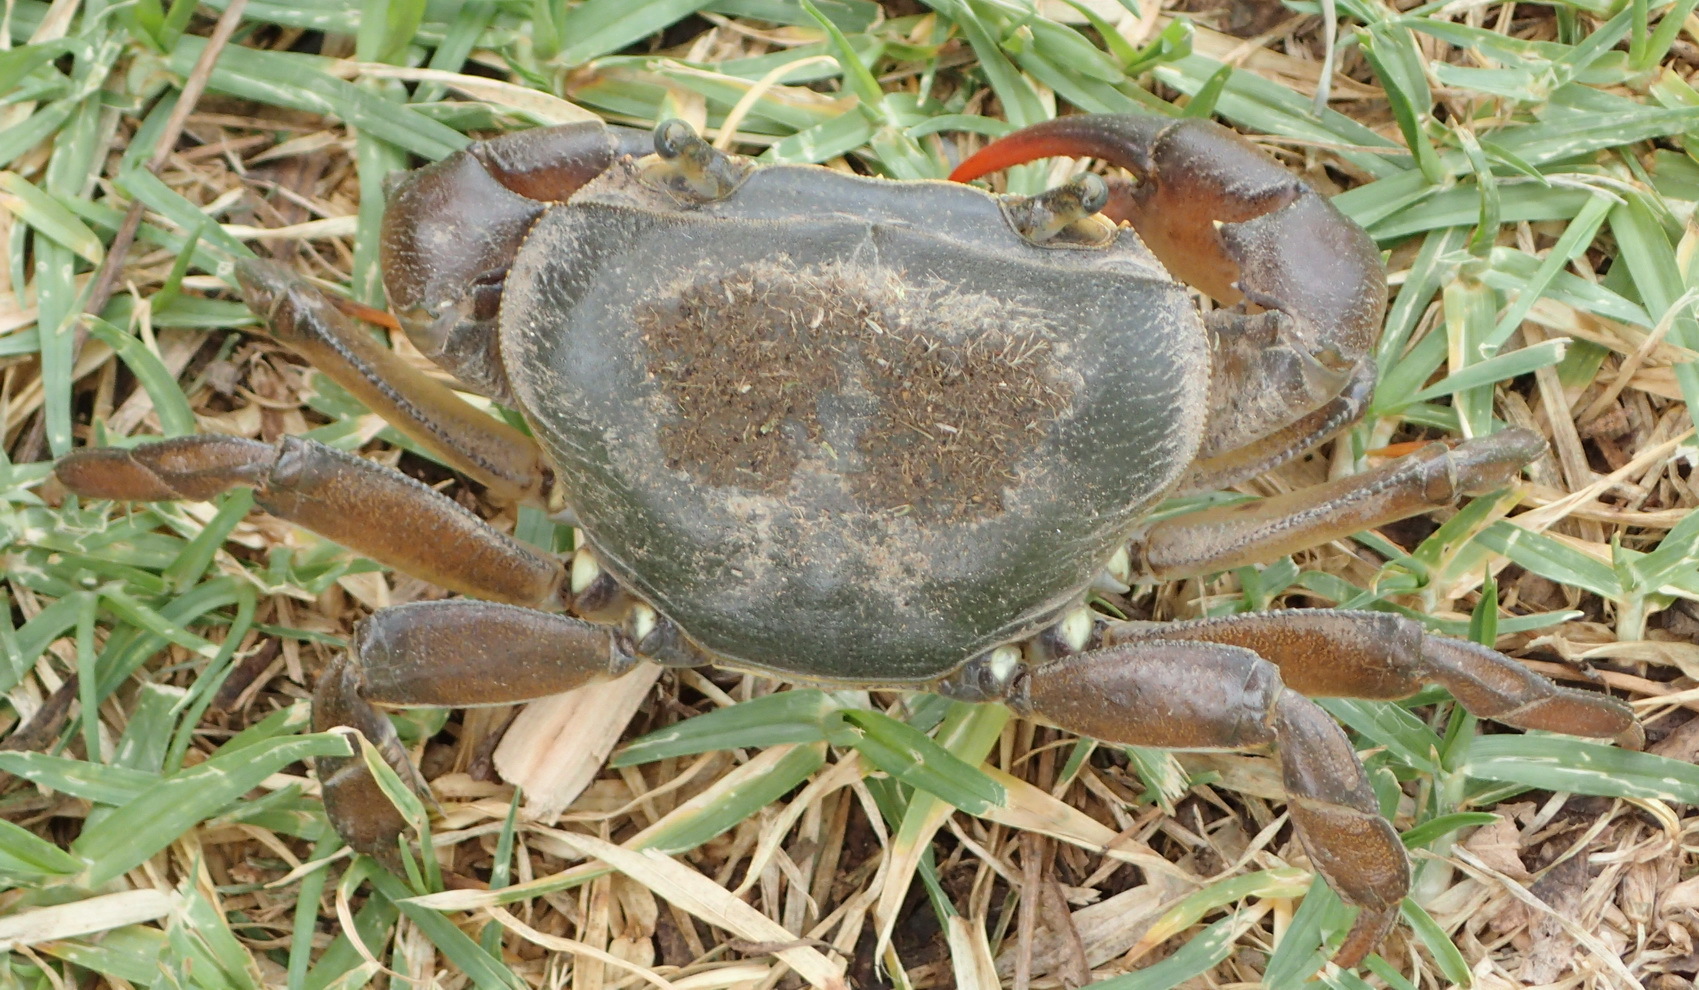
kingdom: Animalia
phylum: Arthropoda
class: Malacostraca
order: Decapoda
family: Potamonautidae
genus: Potamonautes
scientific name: Potamonautes barbarai
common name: Barbara's crab
